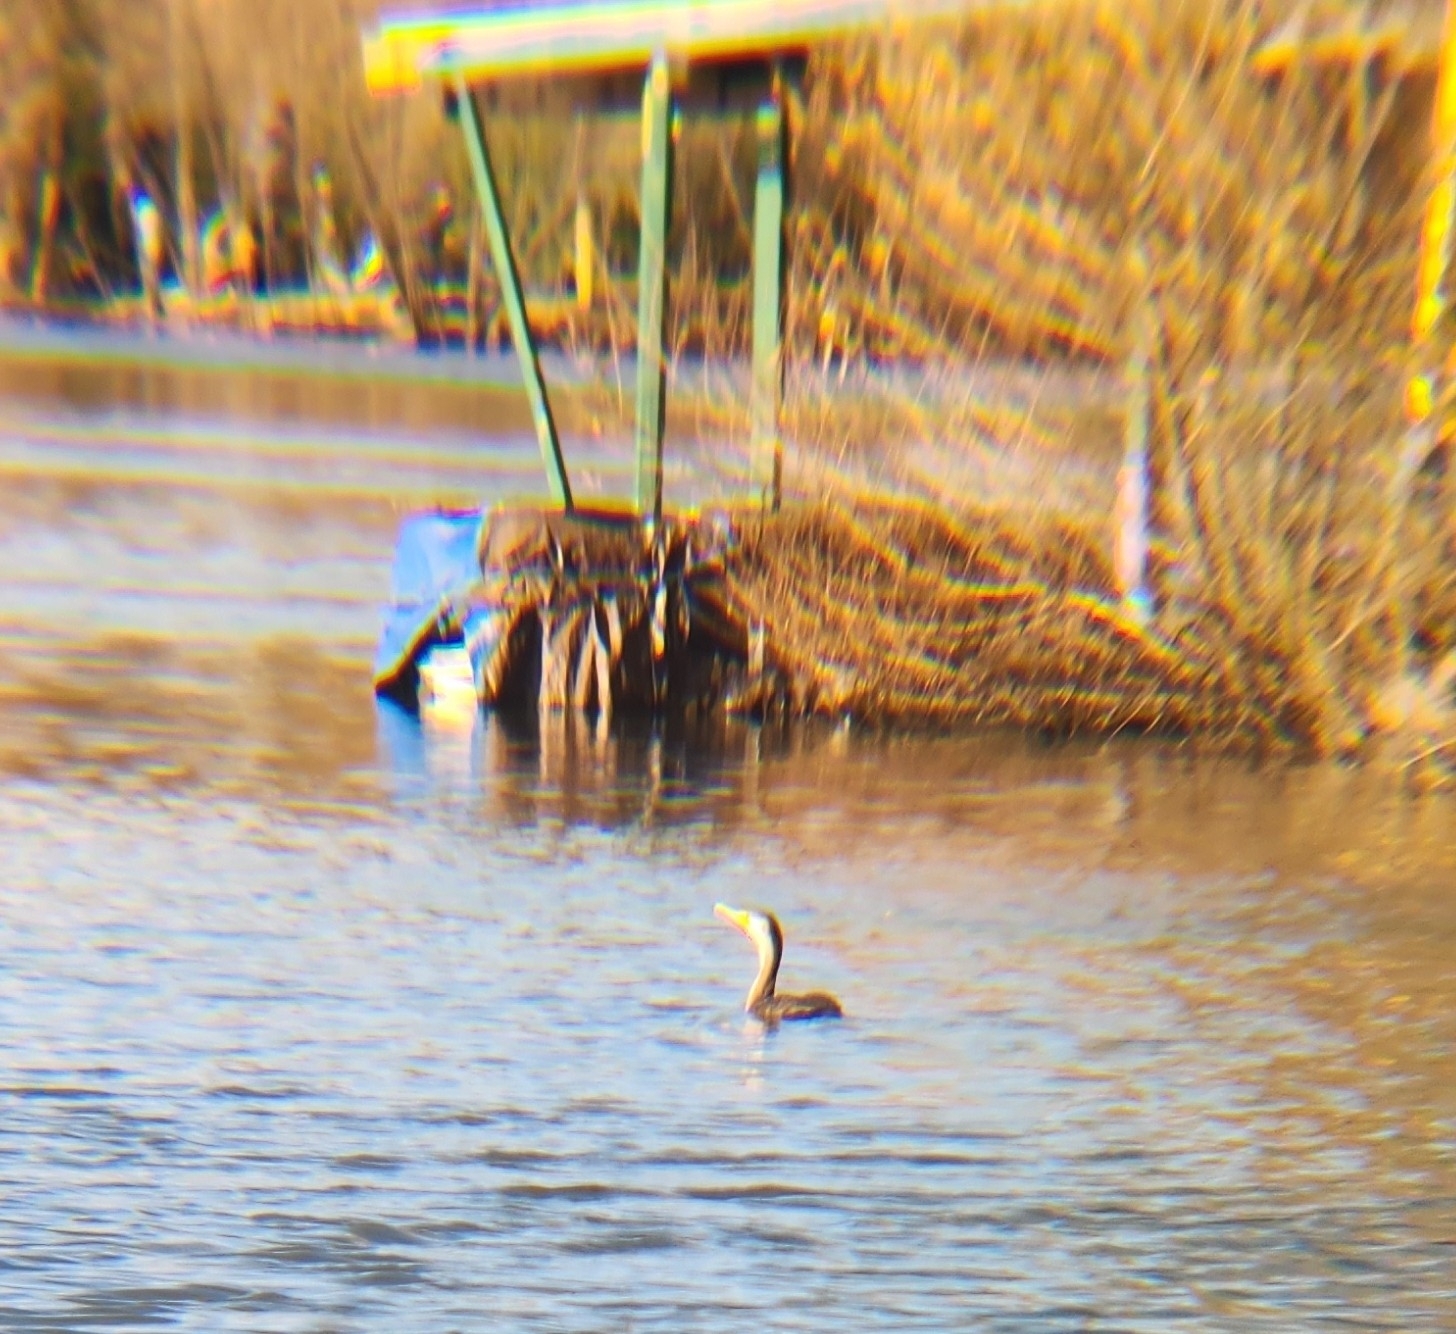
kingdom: Animalia
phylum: Chordata
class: Aves
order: Suliformes
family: Phalacrocoracidae
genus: Phalacrocorax
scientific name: Phalacrocorax auritus
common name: Double-crested cormorant
